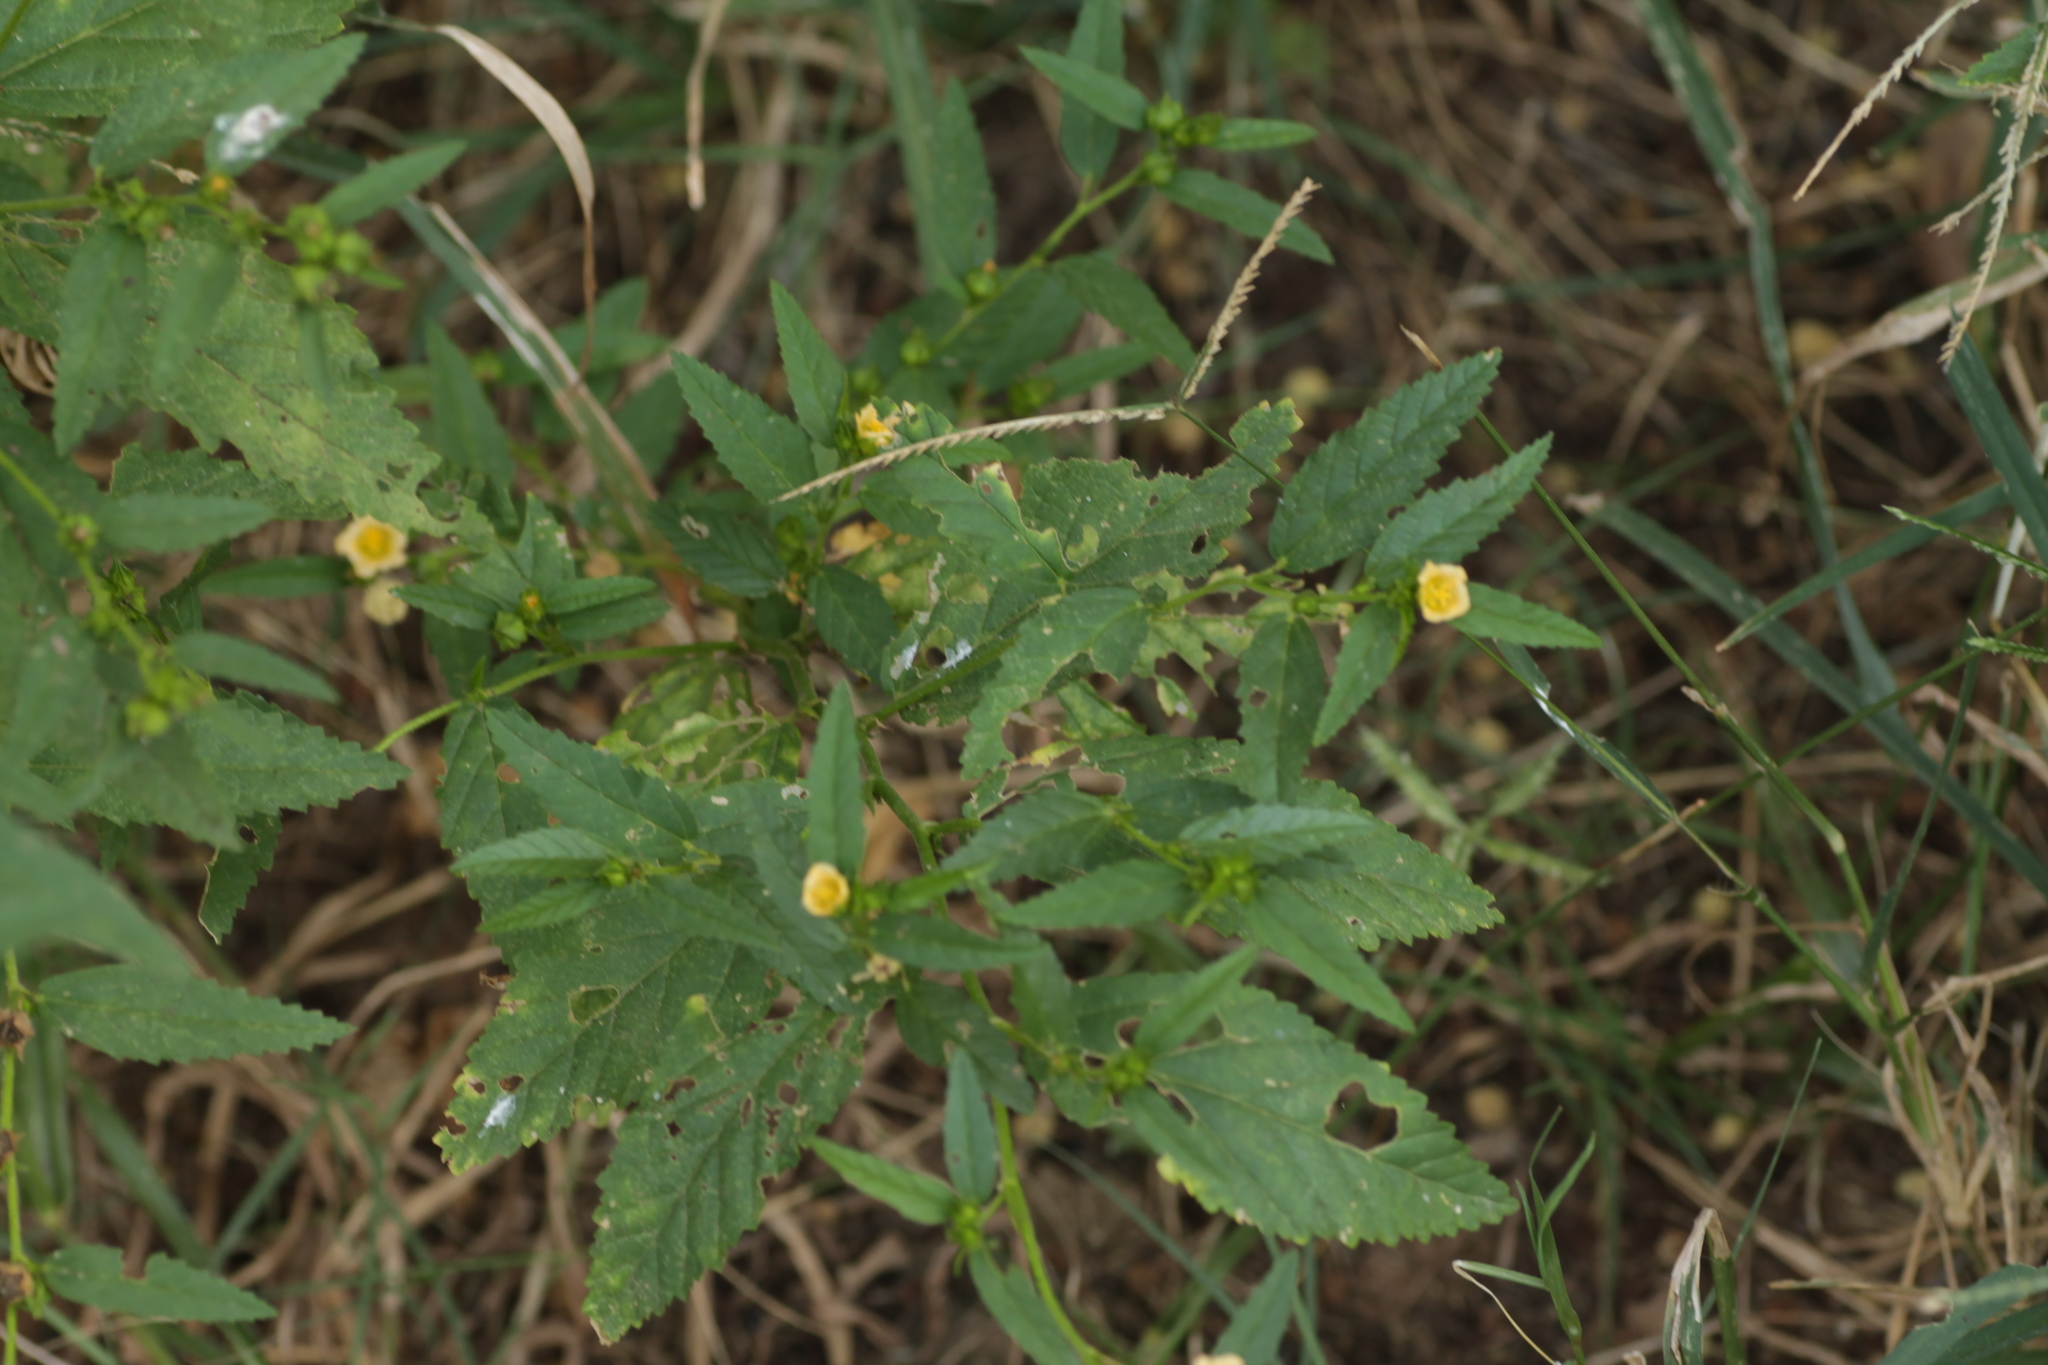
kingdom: Plantae
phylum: Tracheophyta
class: Magnoliopsida
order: Malvales
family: Malvaceae
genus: Sida
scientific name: Sida acuta
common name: Common wireweed
